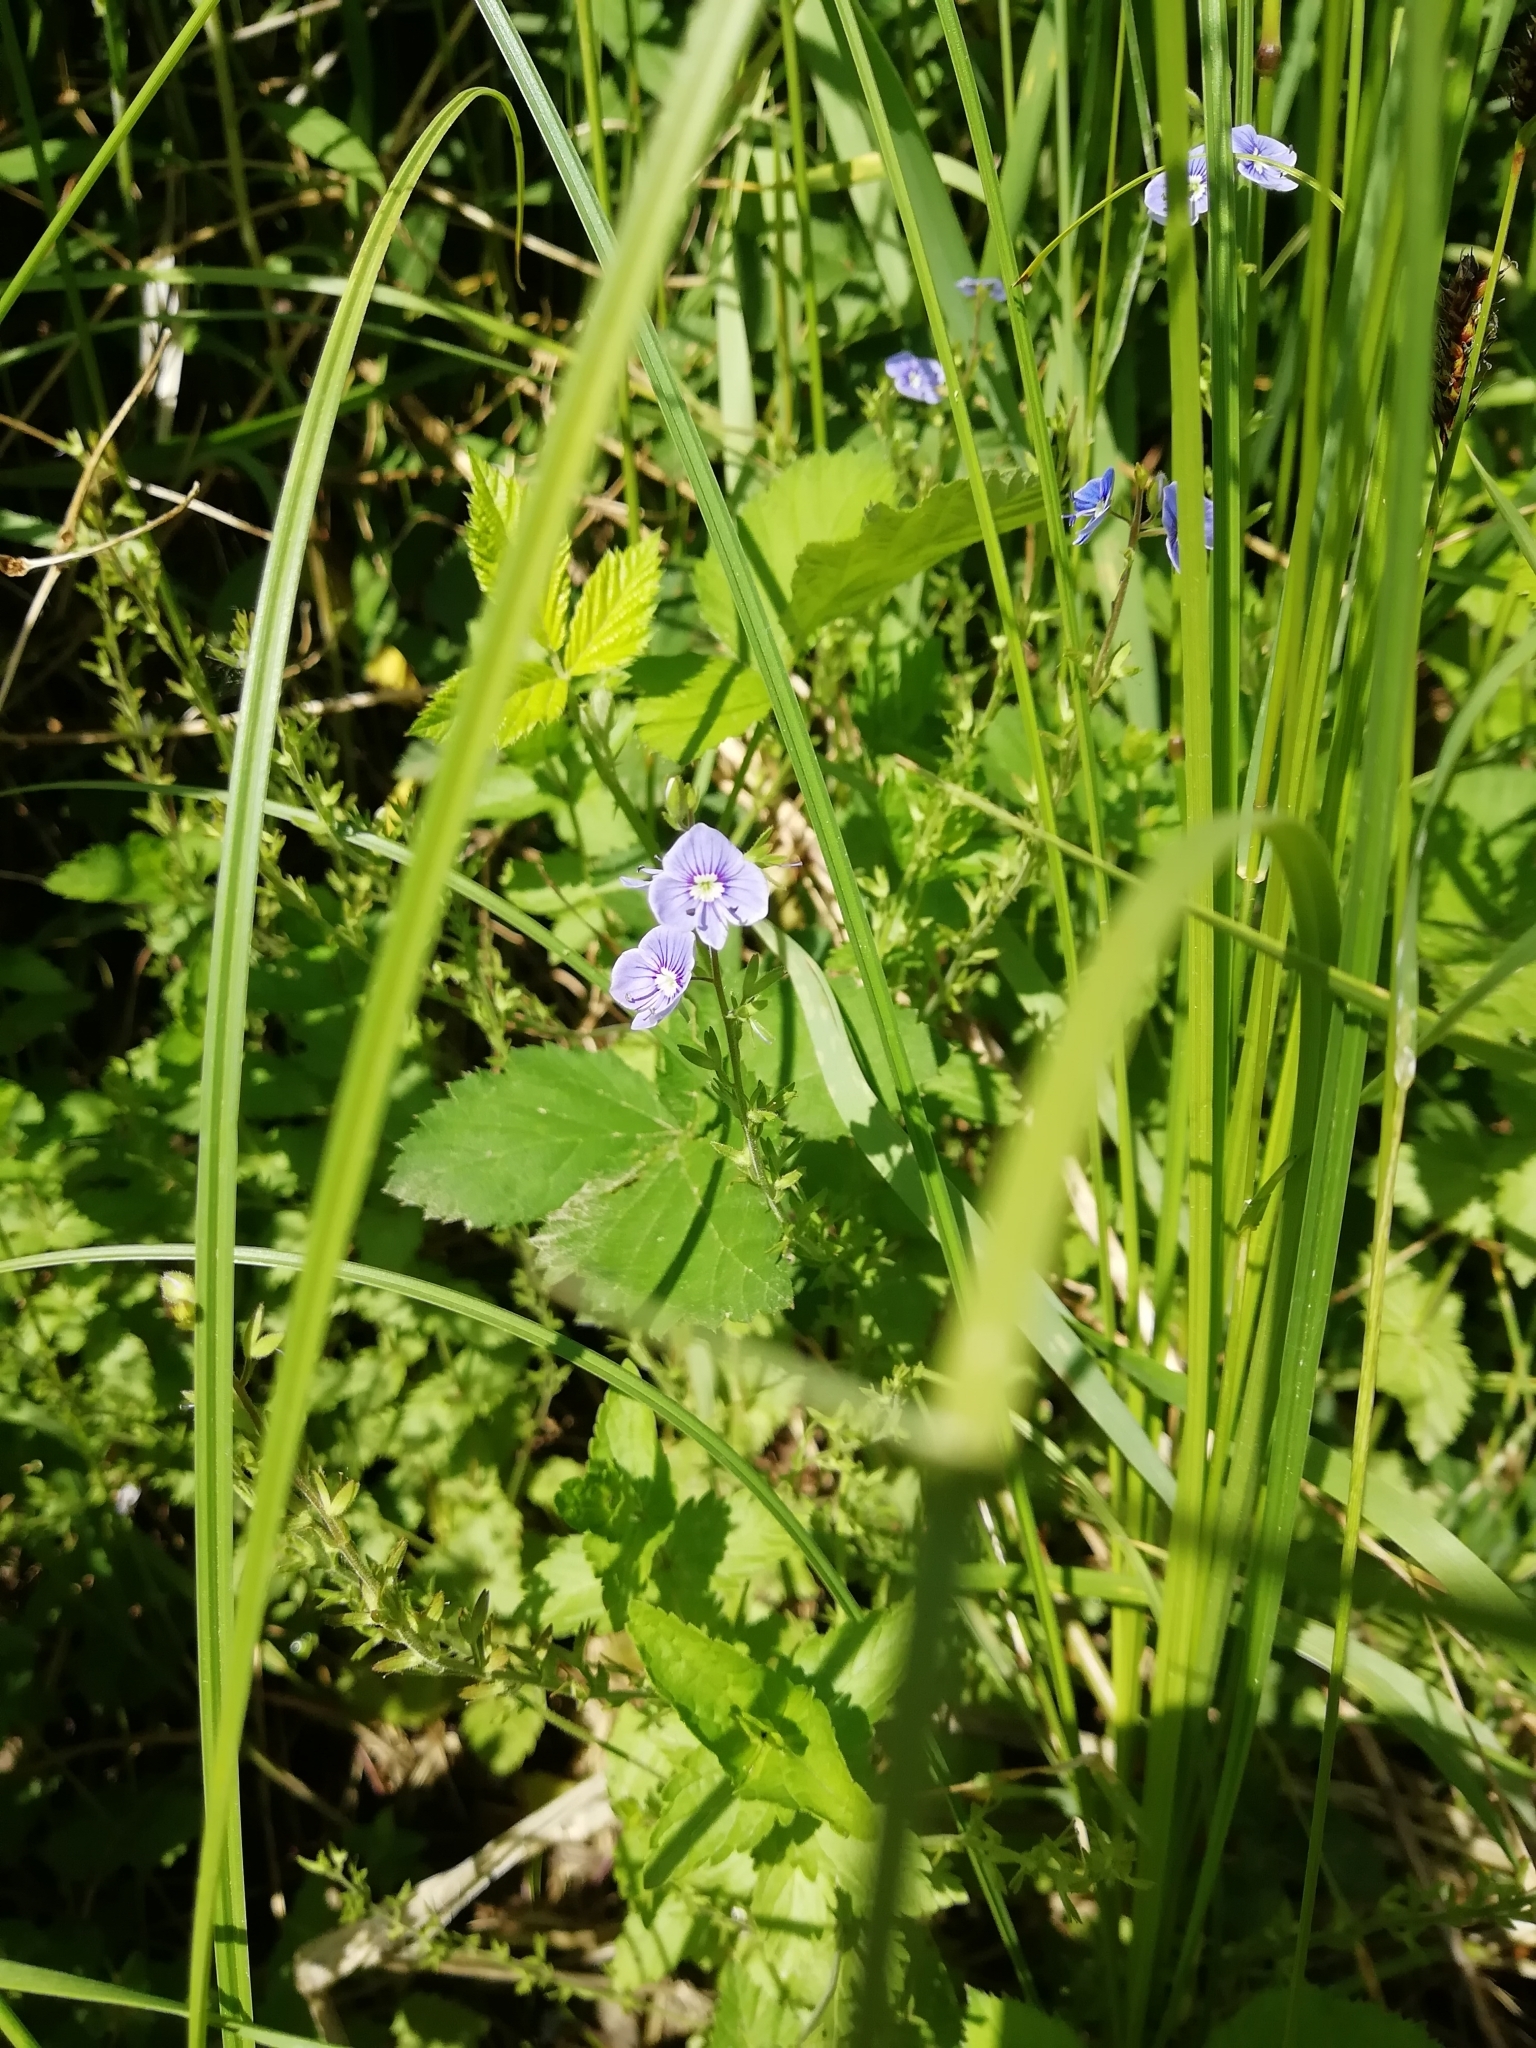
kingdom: Plantae
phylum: Tracheophyta
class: Magnoliopsida
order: Lamiales
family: Plantaginaceae
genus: Veronica
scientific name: Veronica chamaedrys
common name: Germander speedwell
